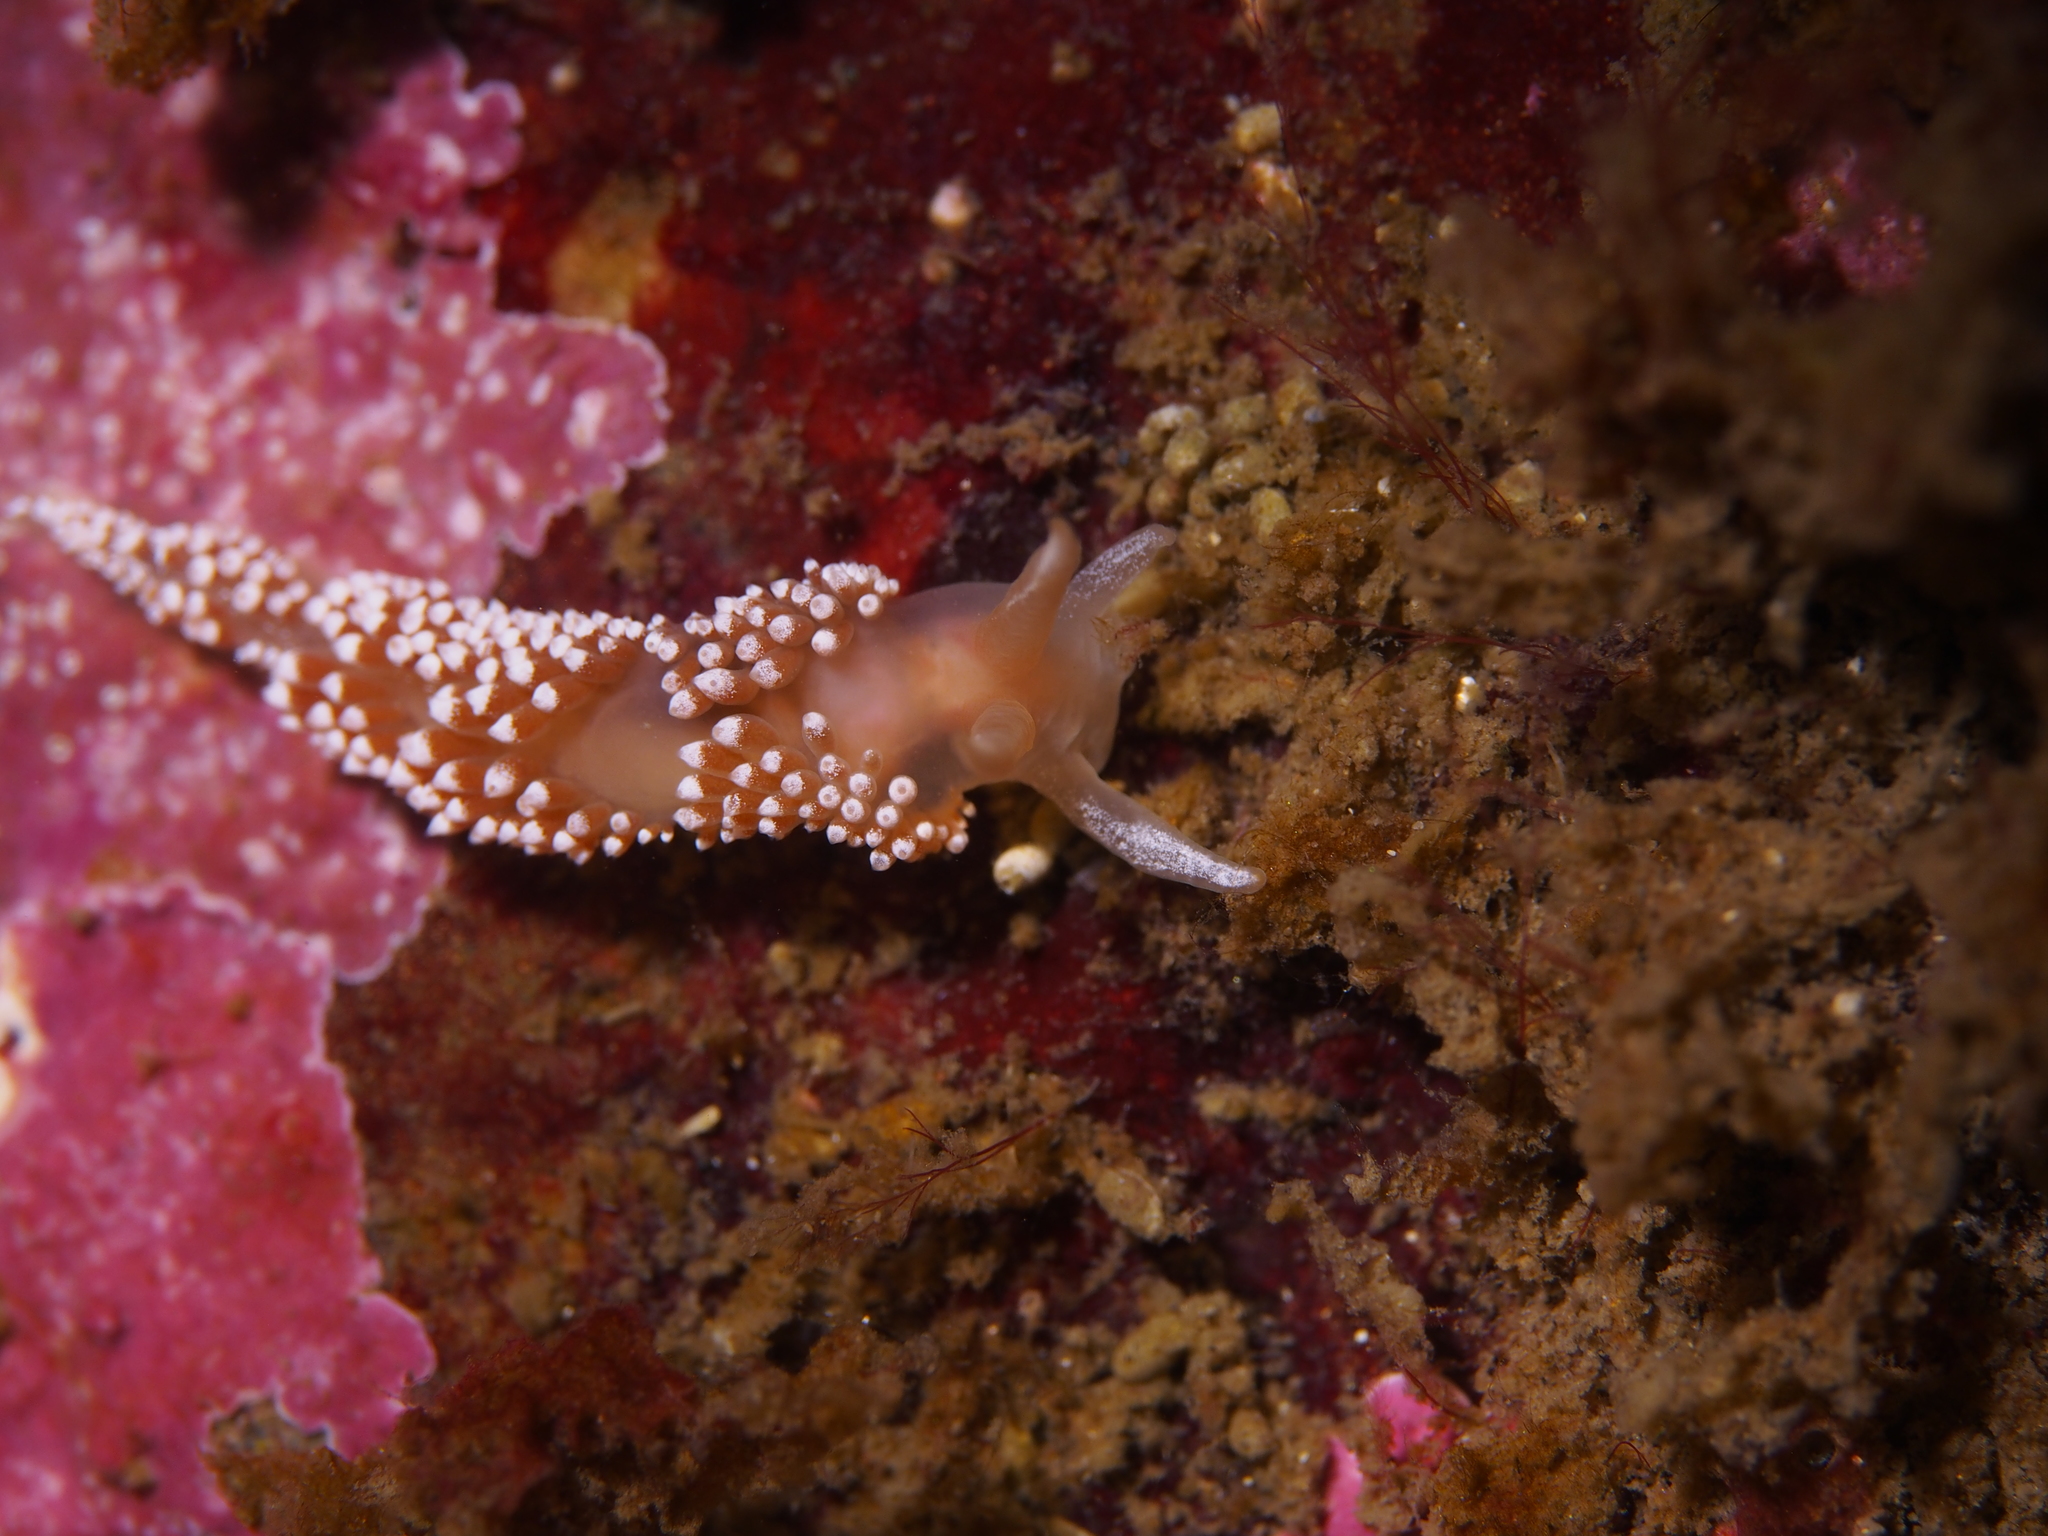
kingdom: Animalia
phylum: Mollusca
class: Gastropoda
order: Nudibranchia
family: Coryphellidae
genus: Coryphella
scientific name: Coryphella verrucosa
